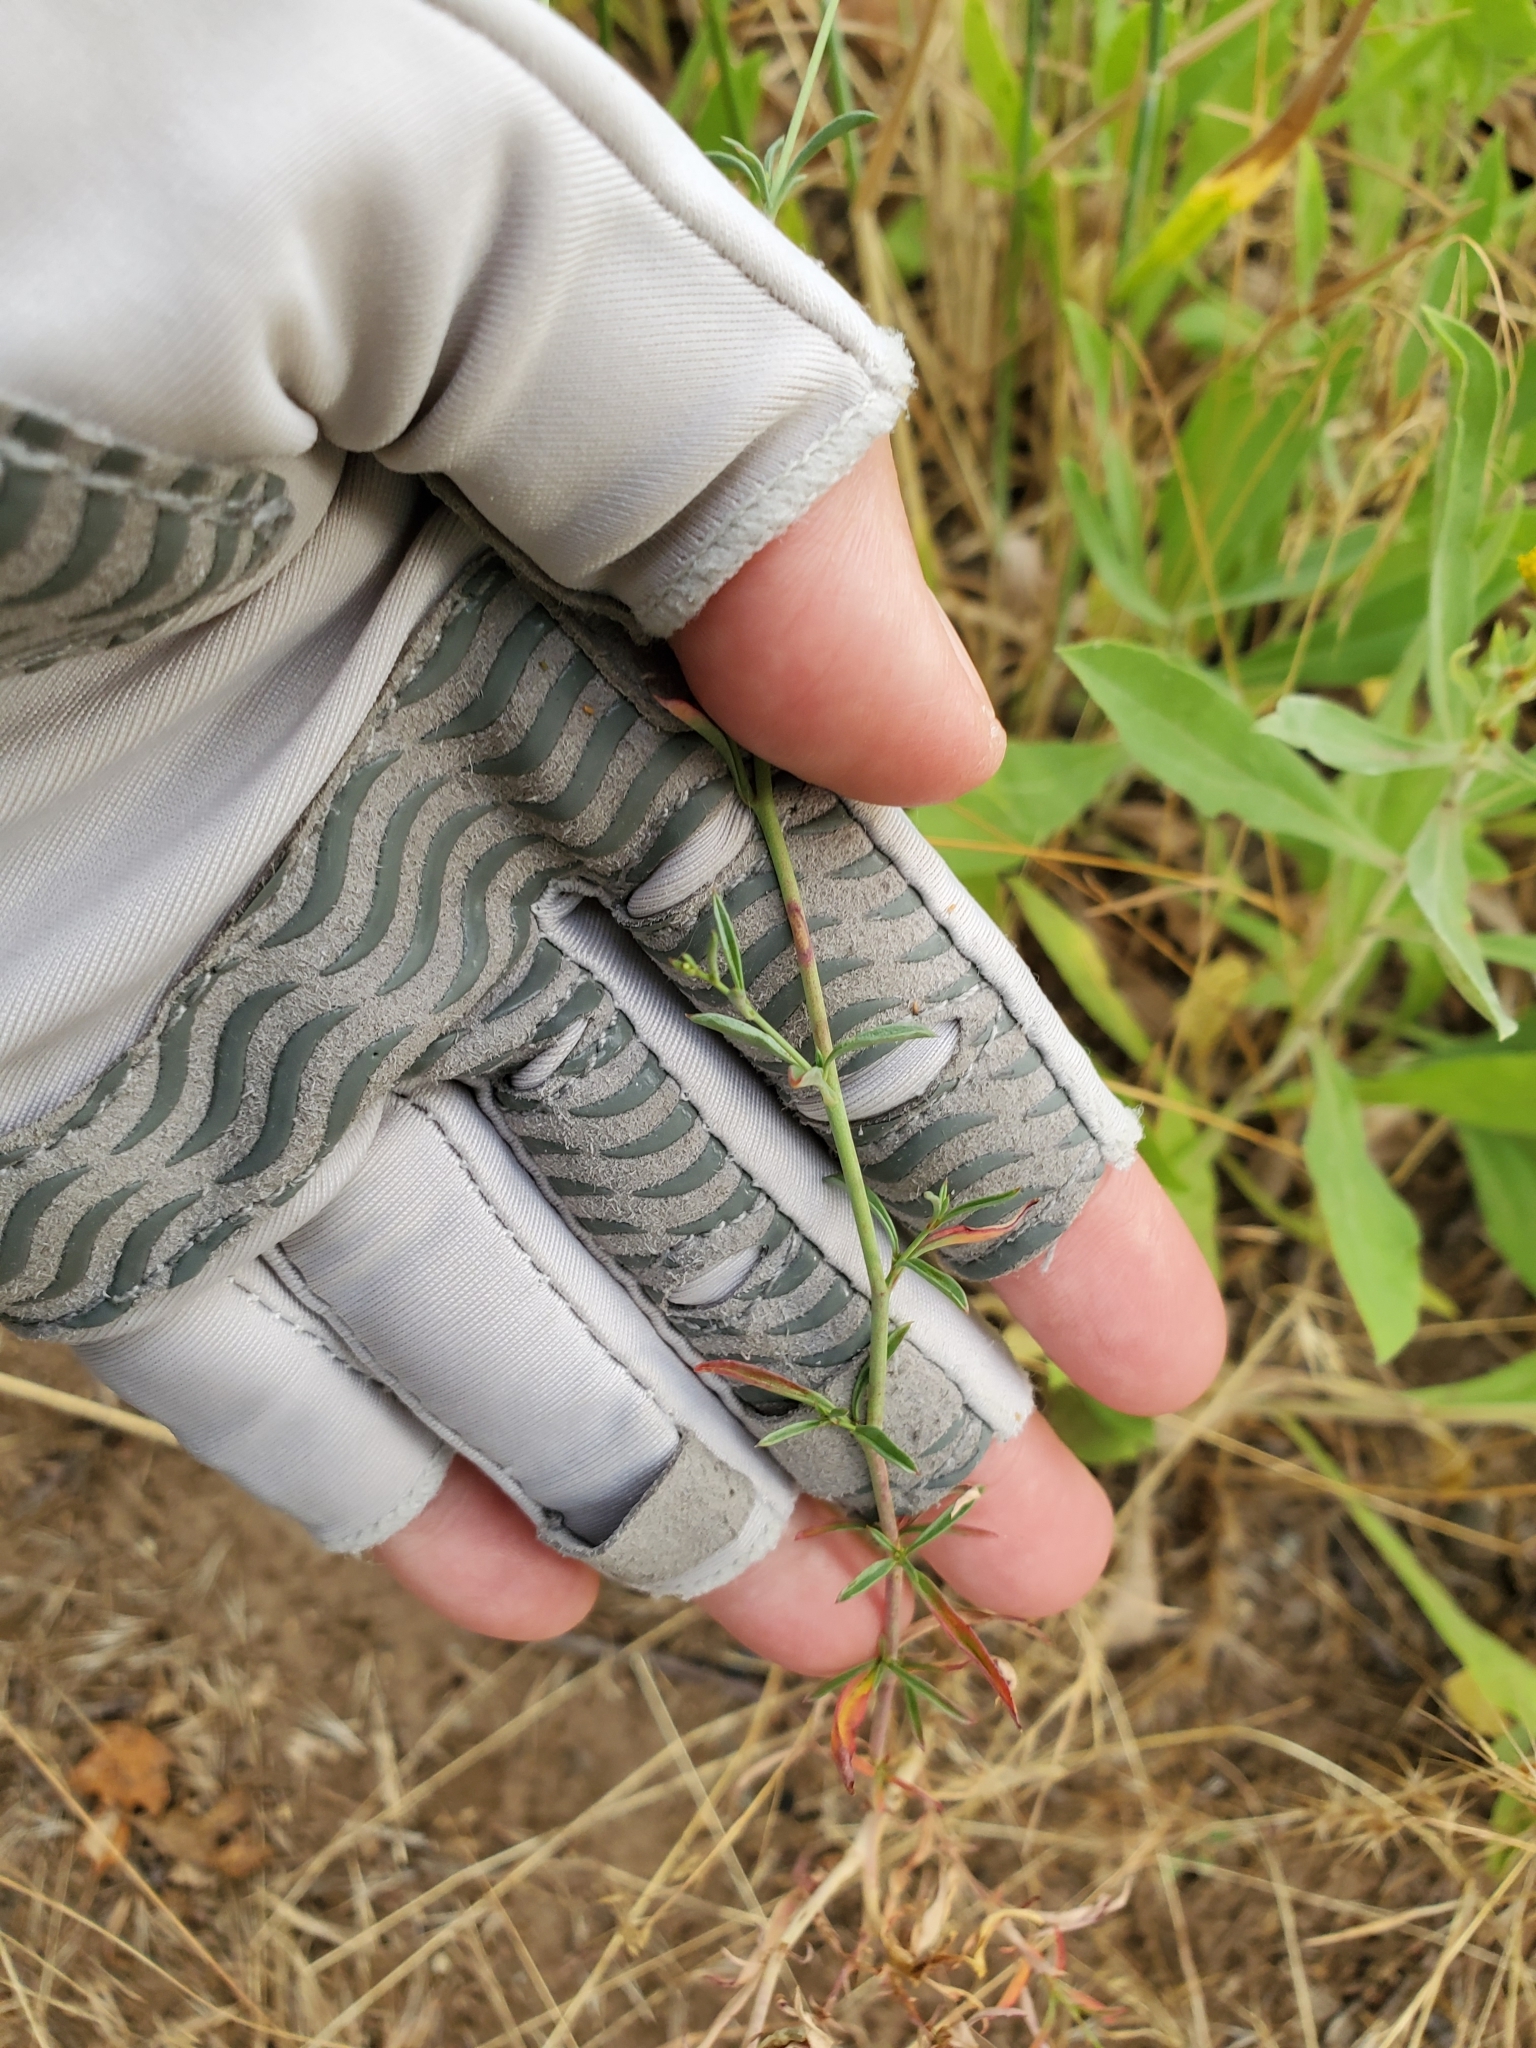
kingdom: Plantae
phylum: Tracheophyta
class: Magnoliopsida
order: Myrtales
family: Onagraceae
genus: Epilobium
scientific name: Epilobium brachycarpum
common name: Annual willowherb
